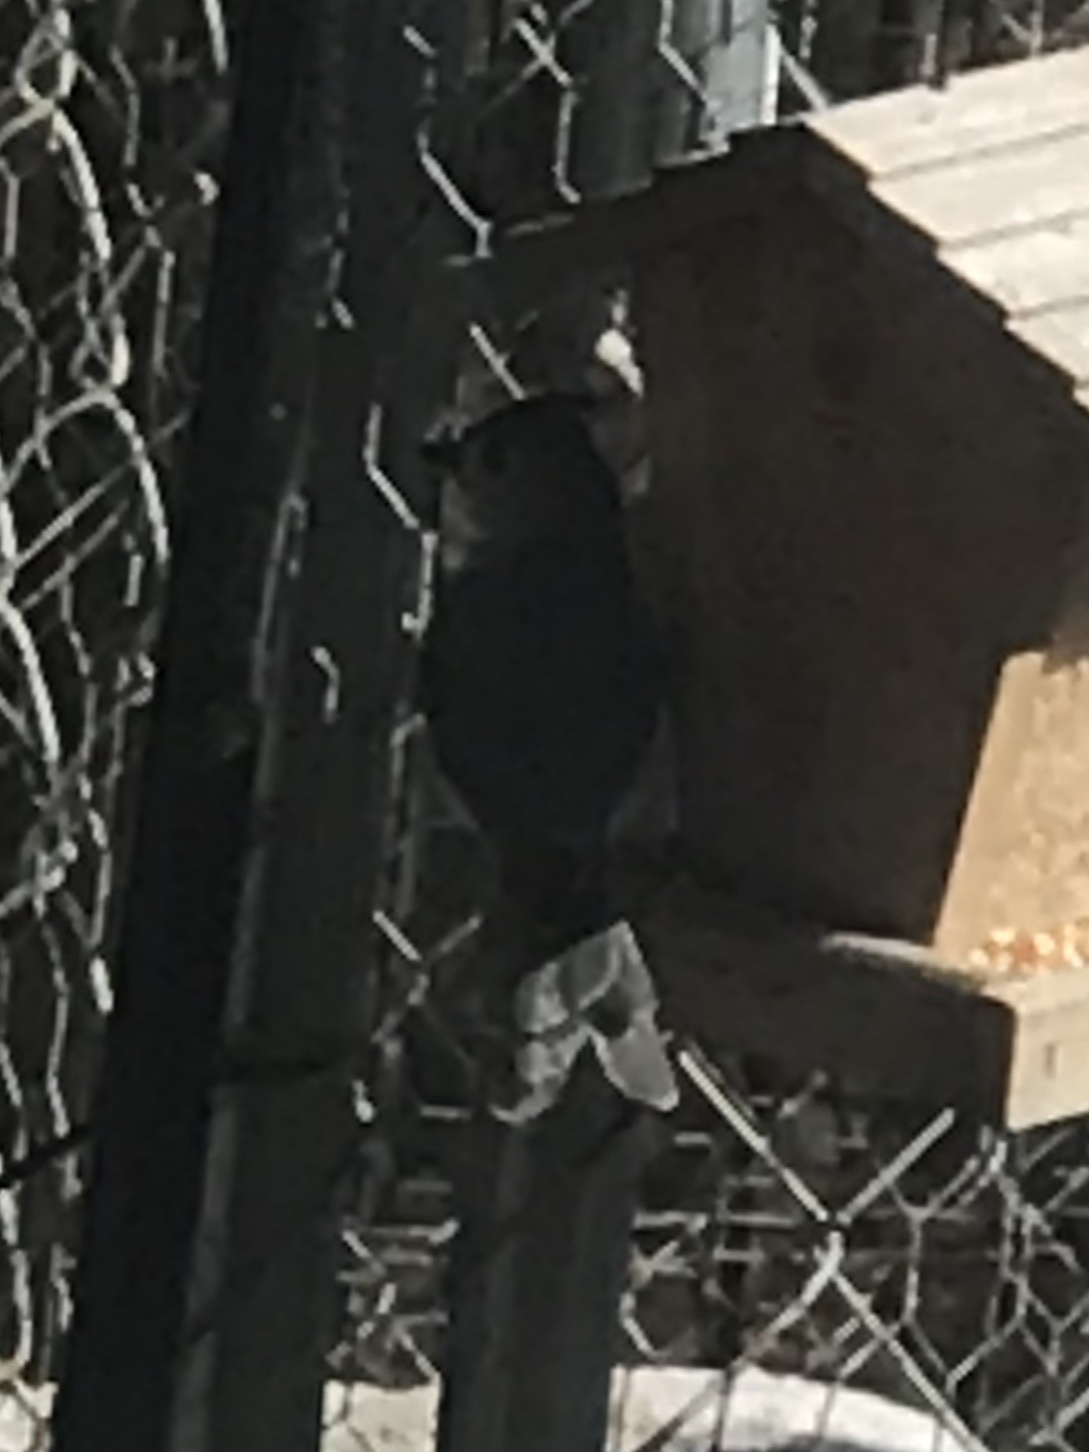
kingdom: Animalia
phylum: Chordata
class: Aves
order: Passeriformes
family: Paridae
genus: Baeolophus
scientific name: Baeolophus bicolor
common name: Tufted titmouse
